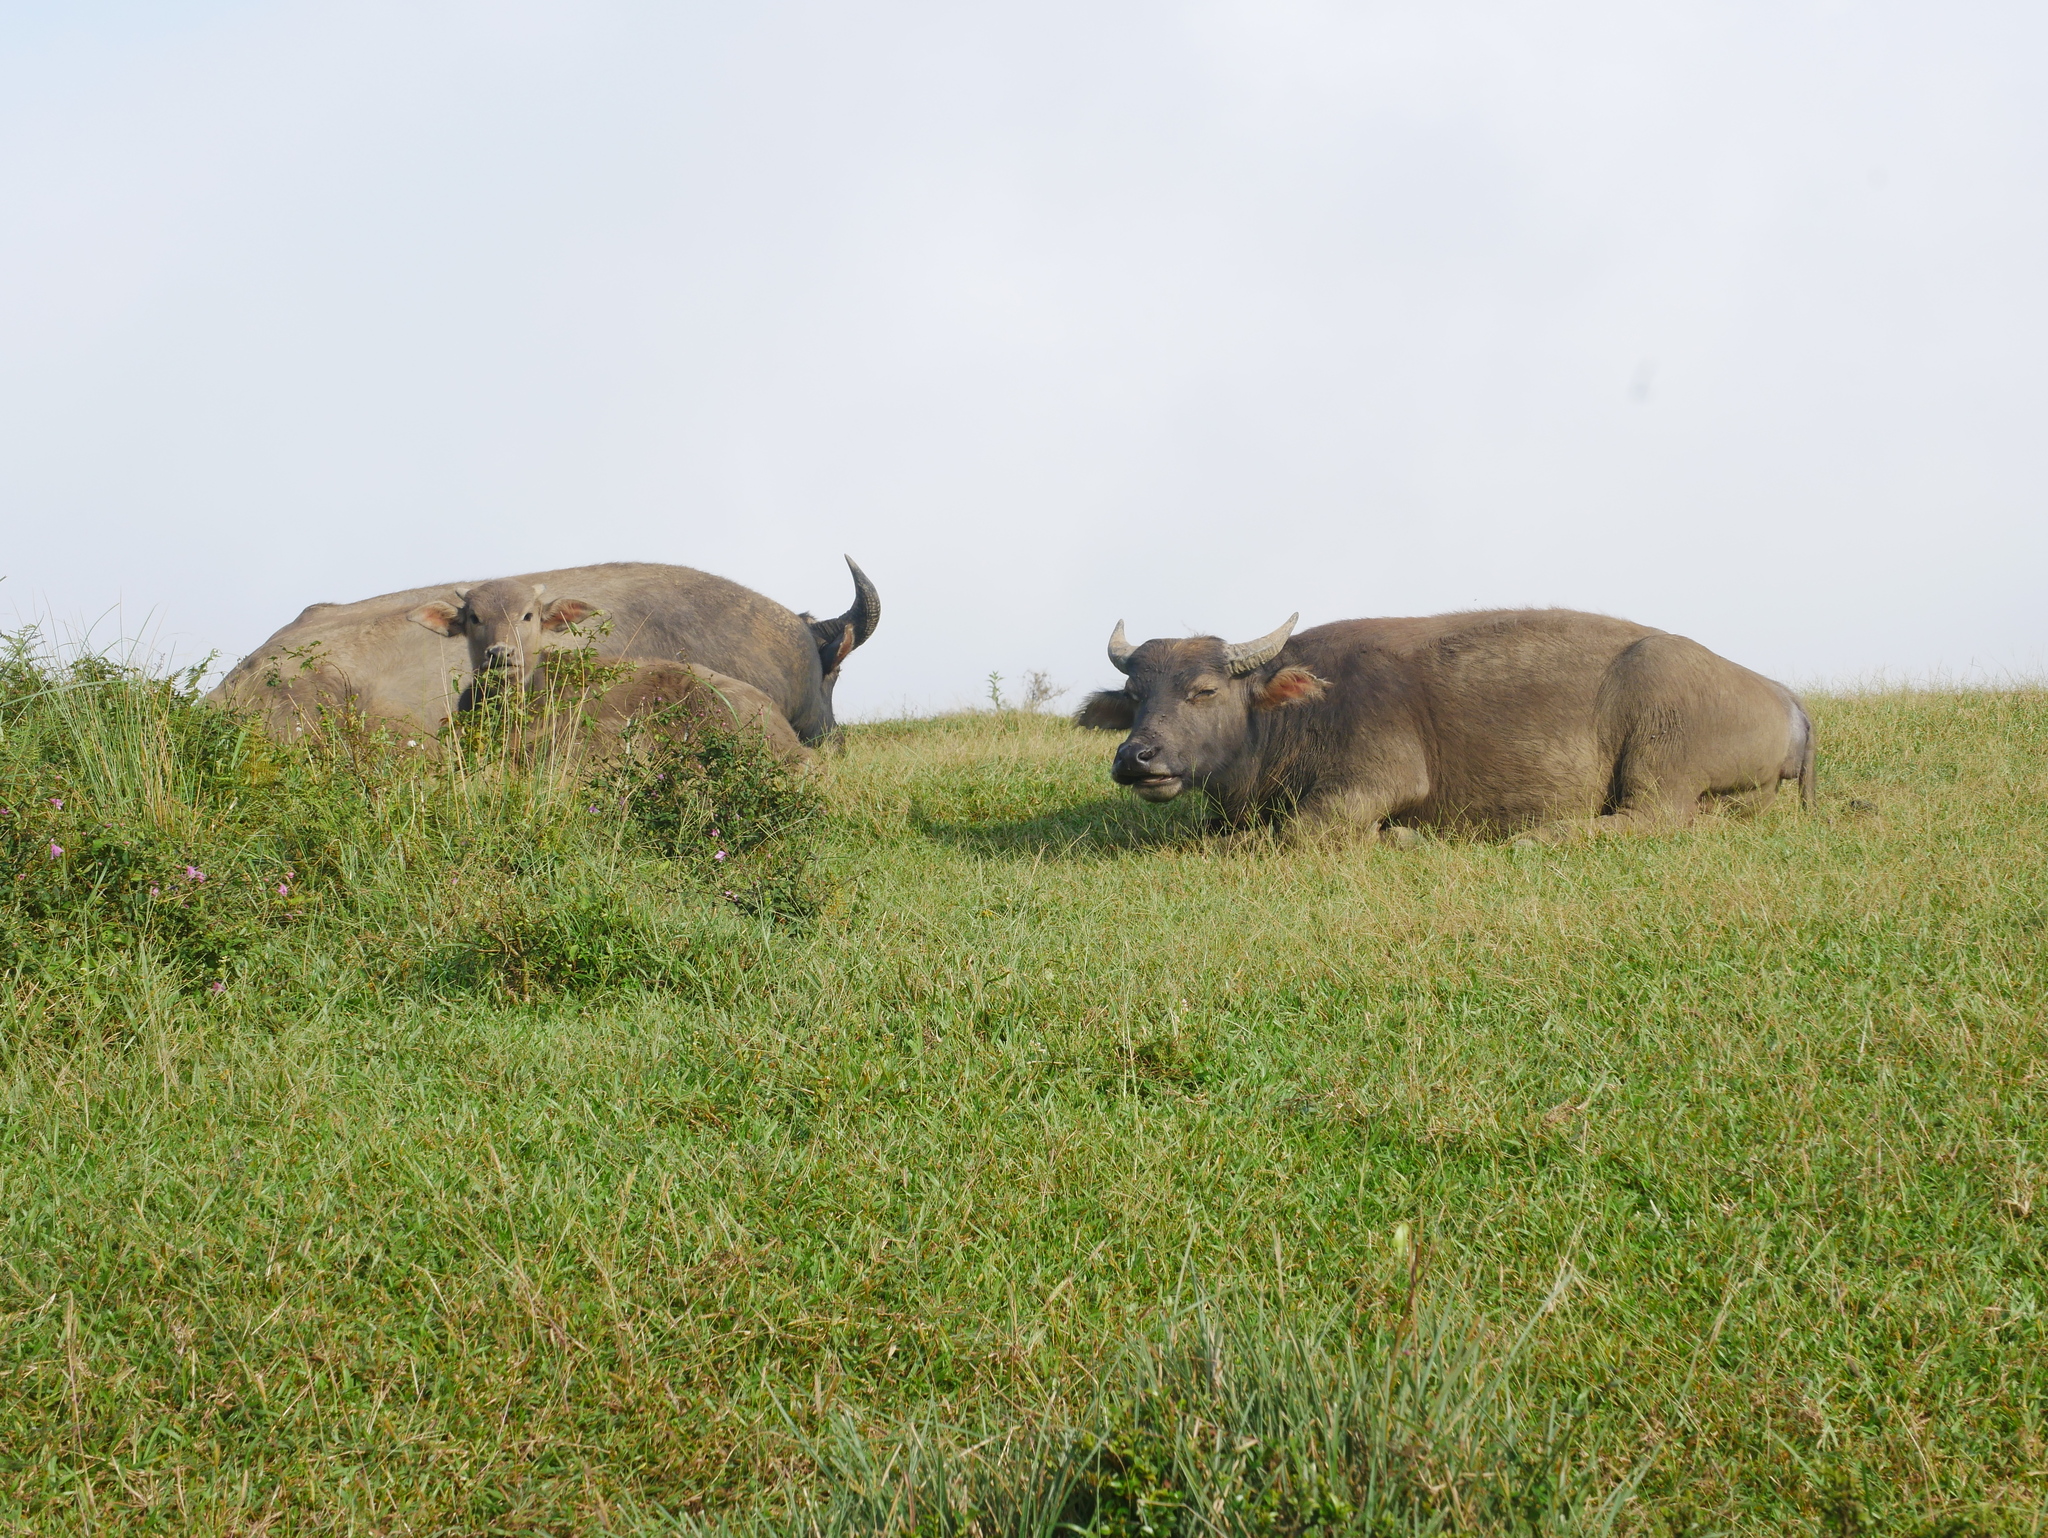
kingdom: Animalia
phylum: Chordata
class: Mammalia
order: Artiodactyla
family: Bovidae
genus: Bubalus
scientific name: Bubalus bubalis
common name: Water buffalo
